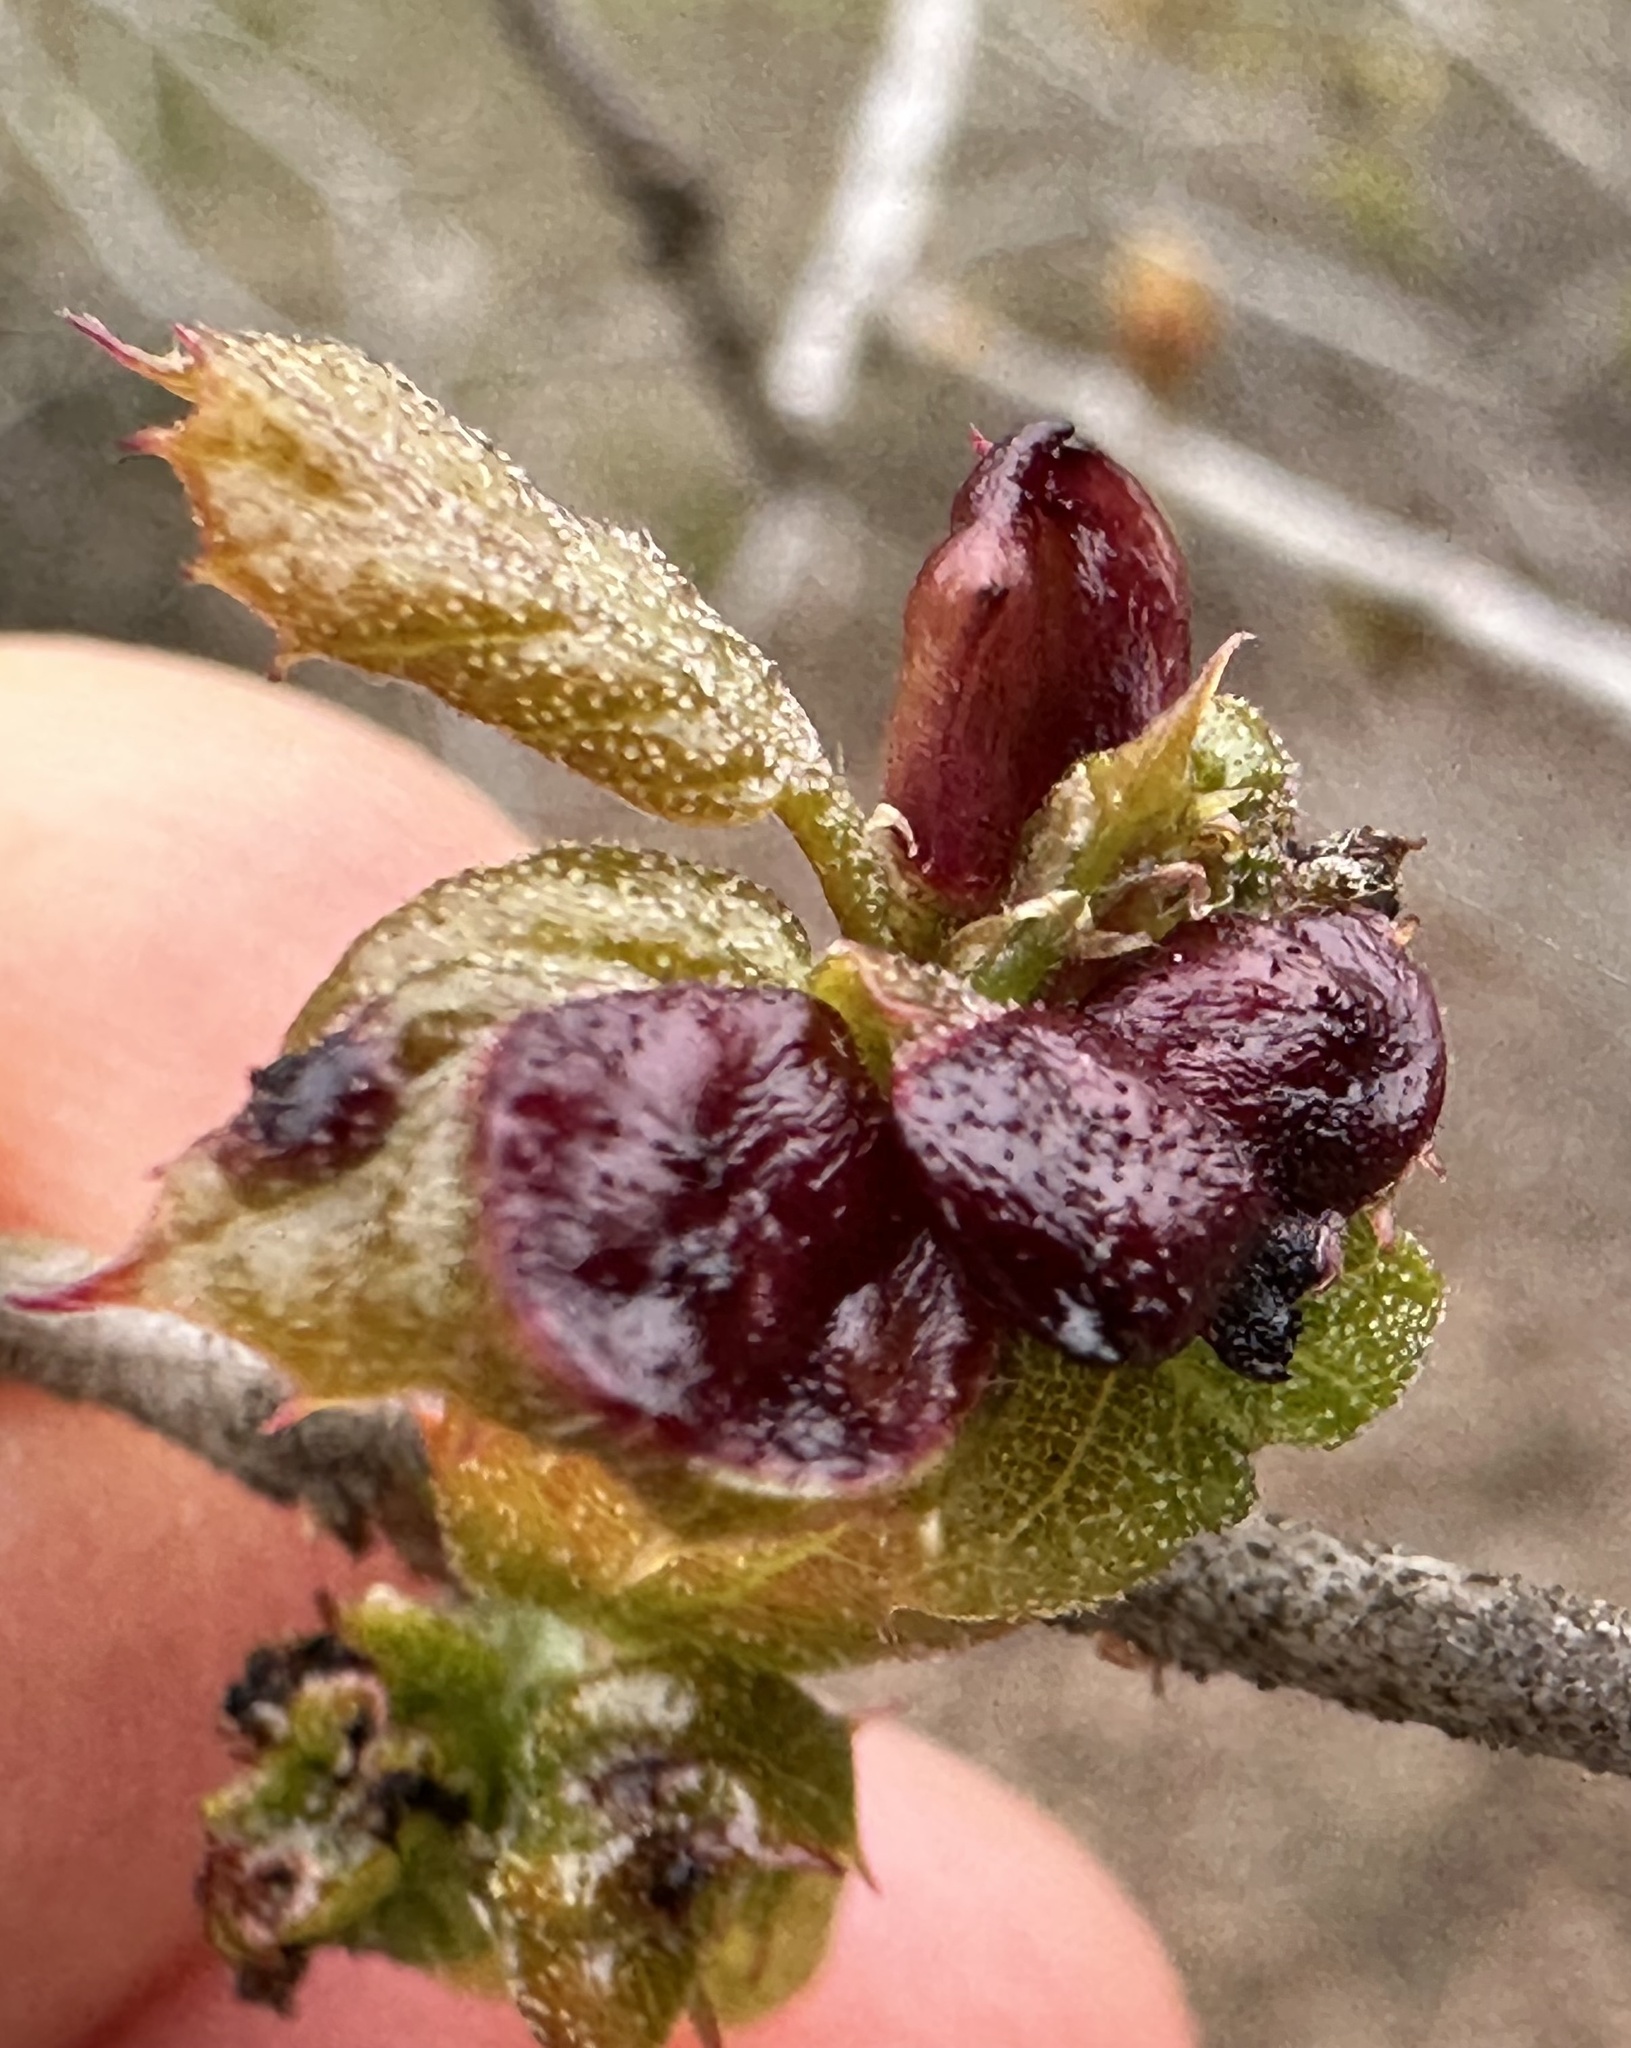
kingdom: Animalia
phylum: Arthropoda
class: Insecta
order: Hymenoptera
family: Cynipidae
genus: Dryocosmus
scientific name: Dryocosmus
